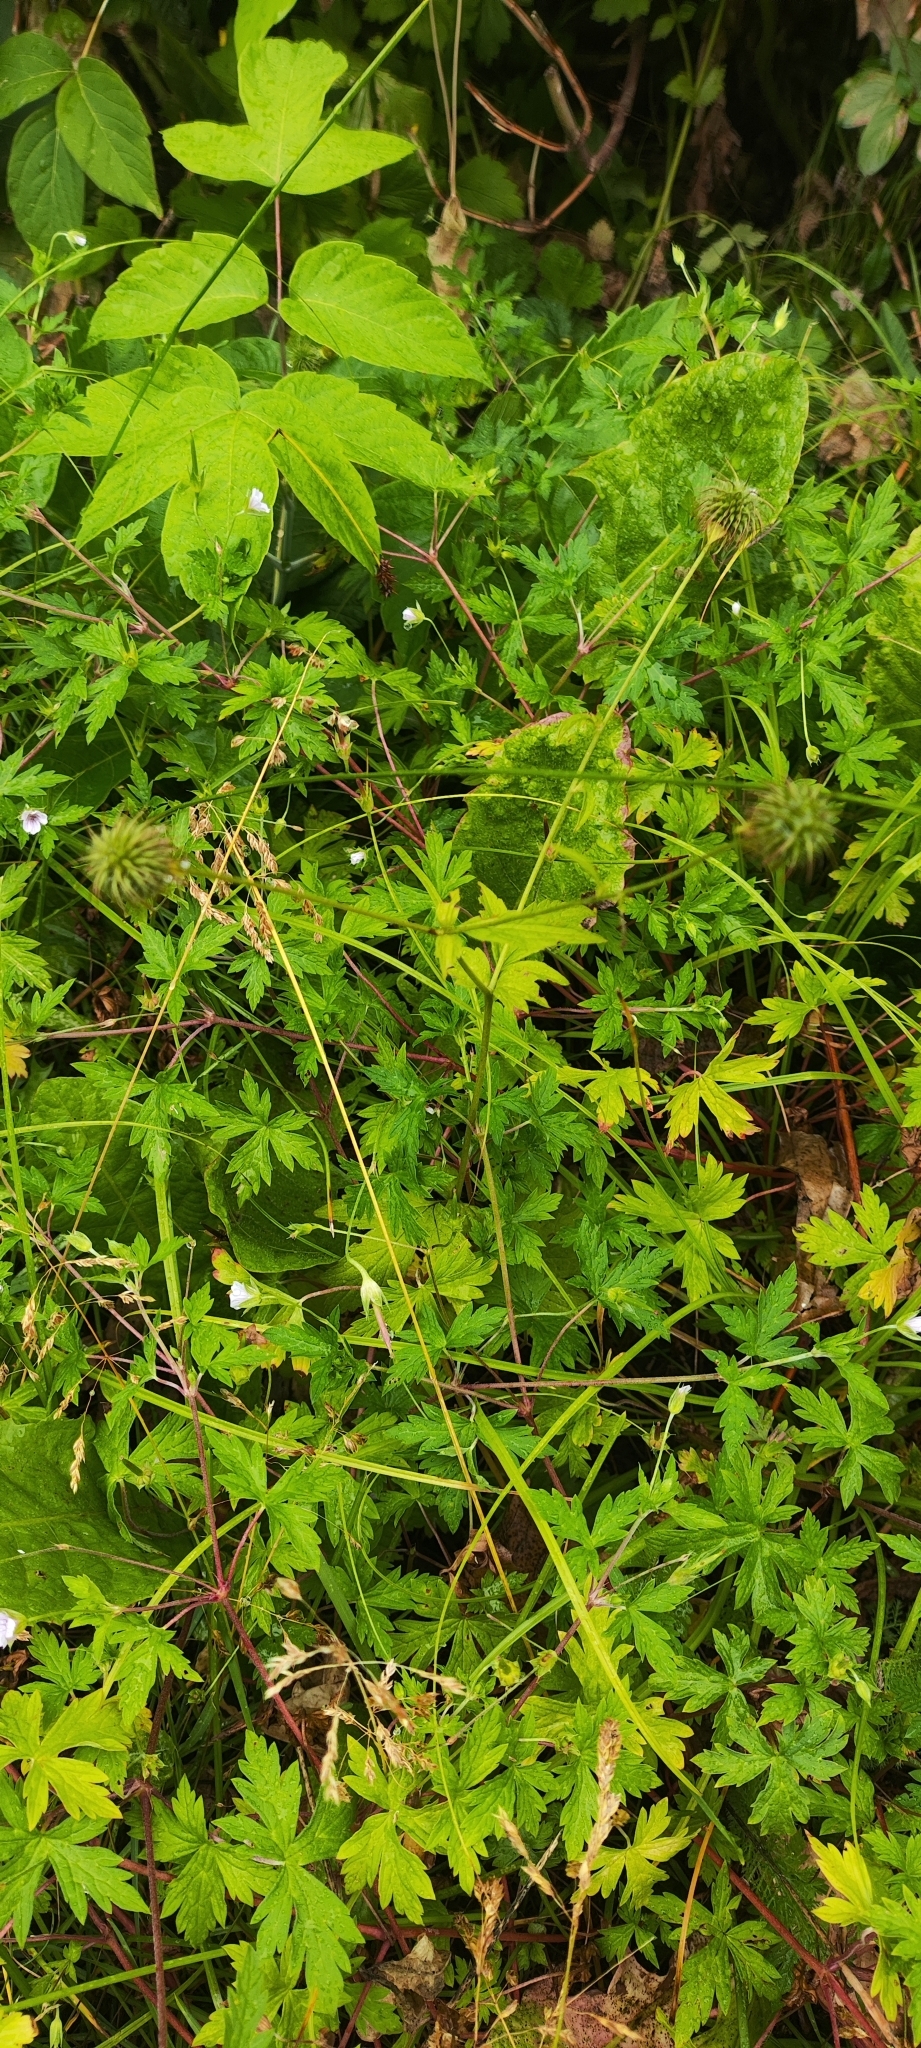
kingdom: Plantae
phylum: Tracheophyta
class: Magnoliopsida
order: Rosales
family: Rosaceae
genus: Geum
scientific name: Geum urbanum
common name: Wood avens
